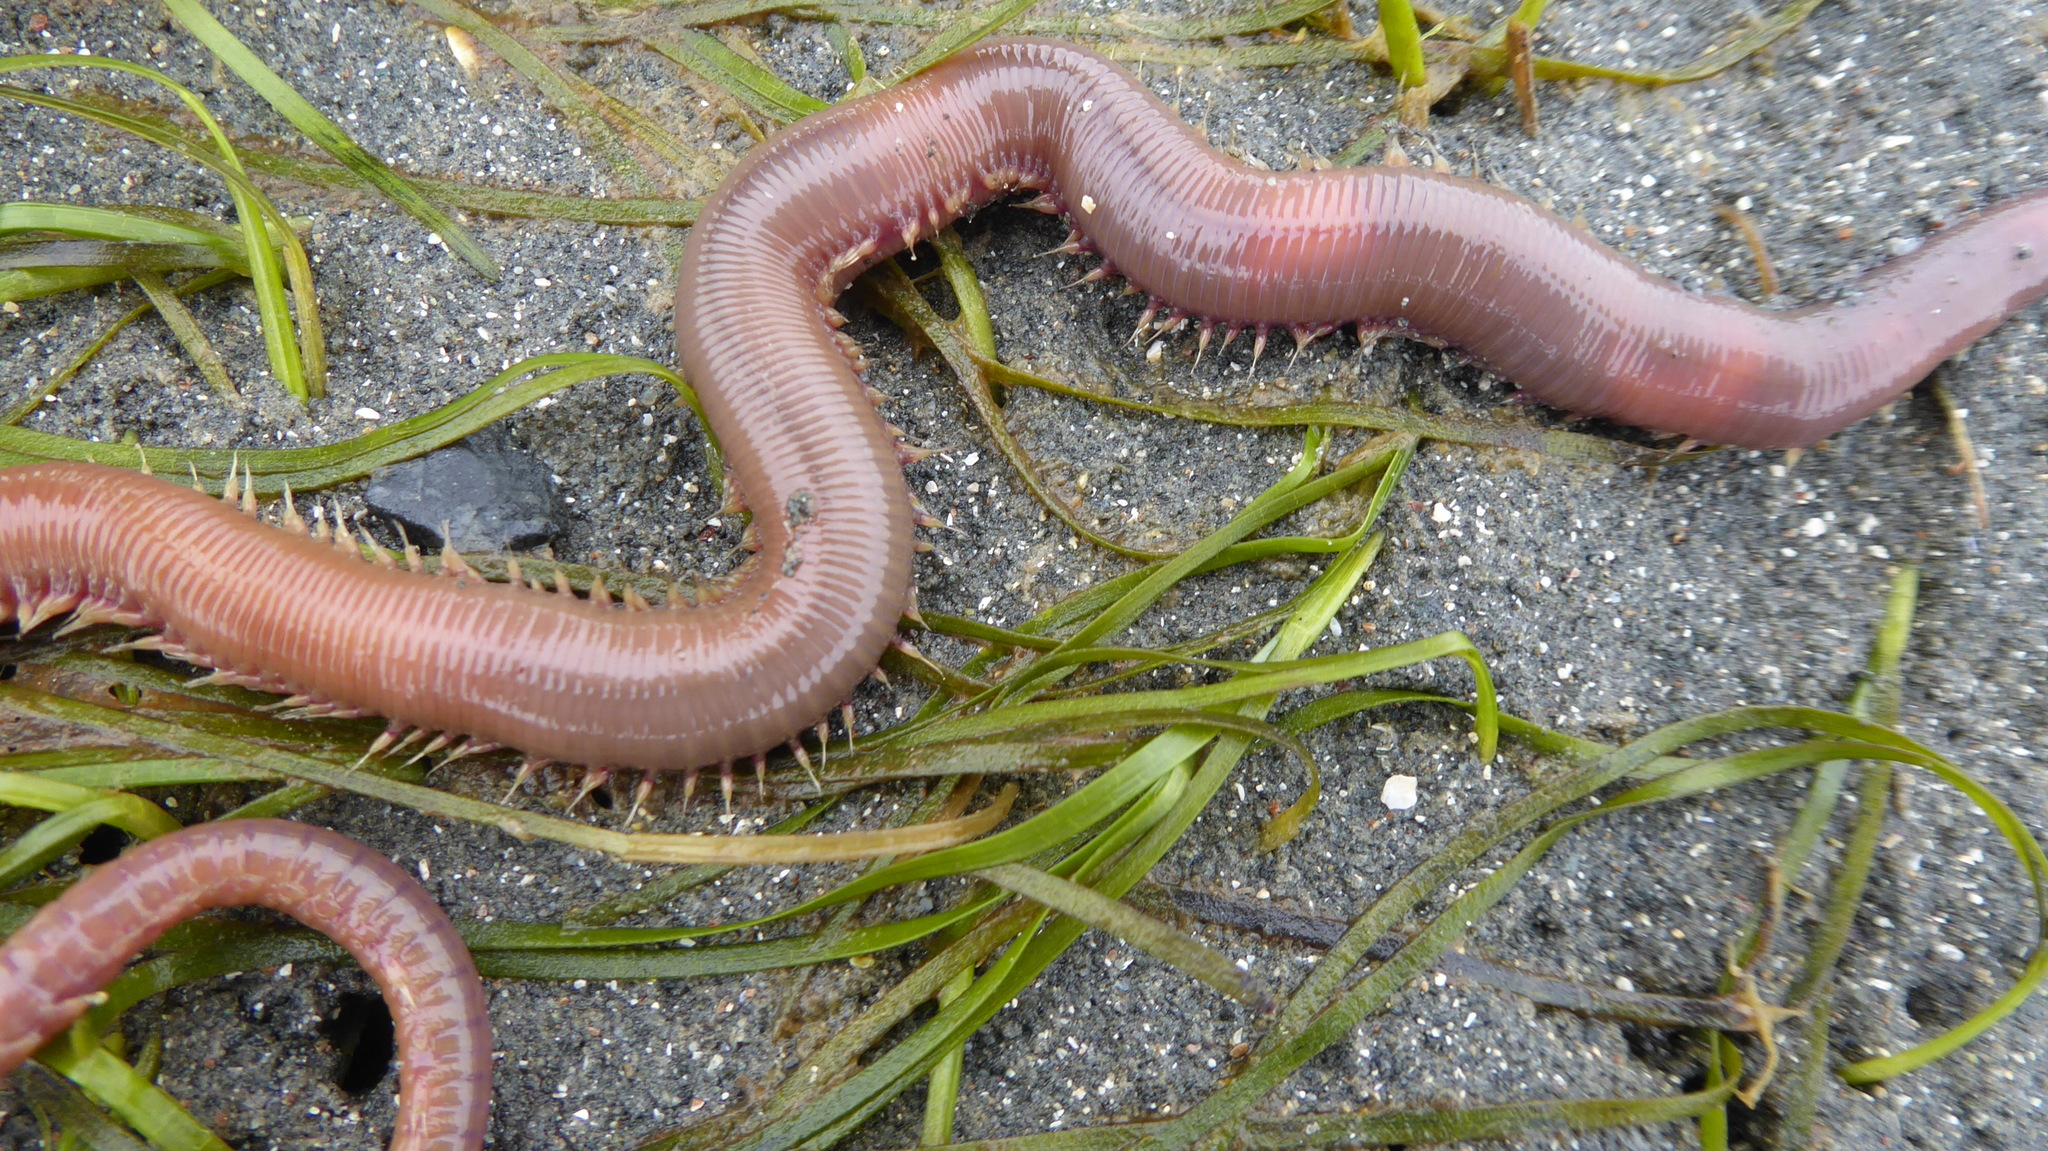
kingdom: Animalia
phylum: Annelida
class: Polychaeta
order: Phyllodocida
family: Glyceridae
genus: Glycera
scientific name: Glycera americana
